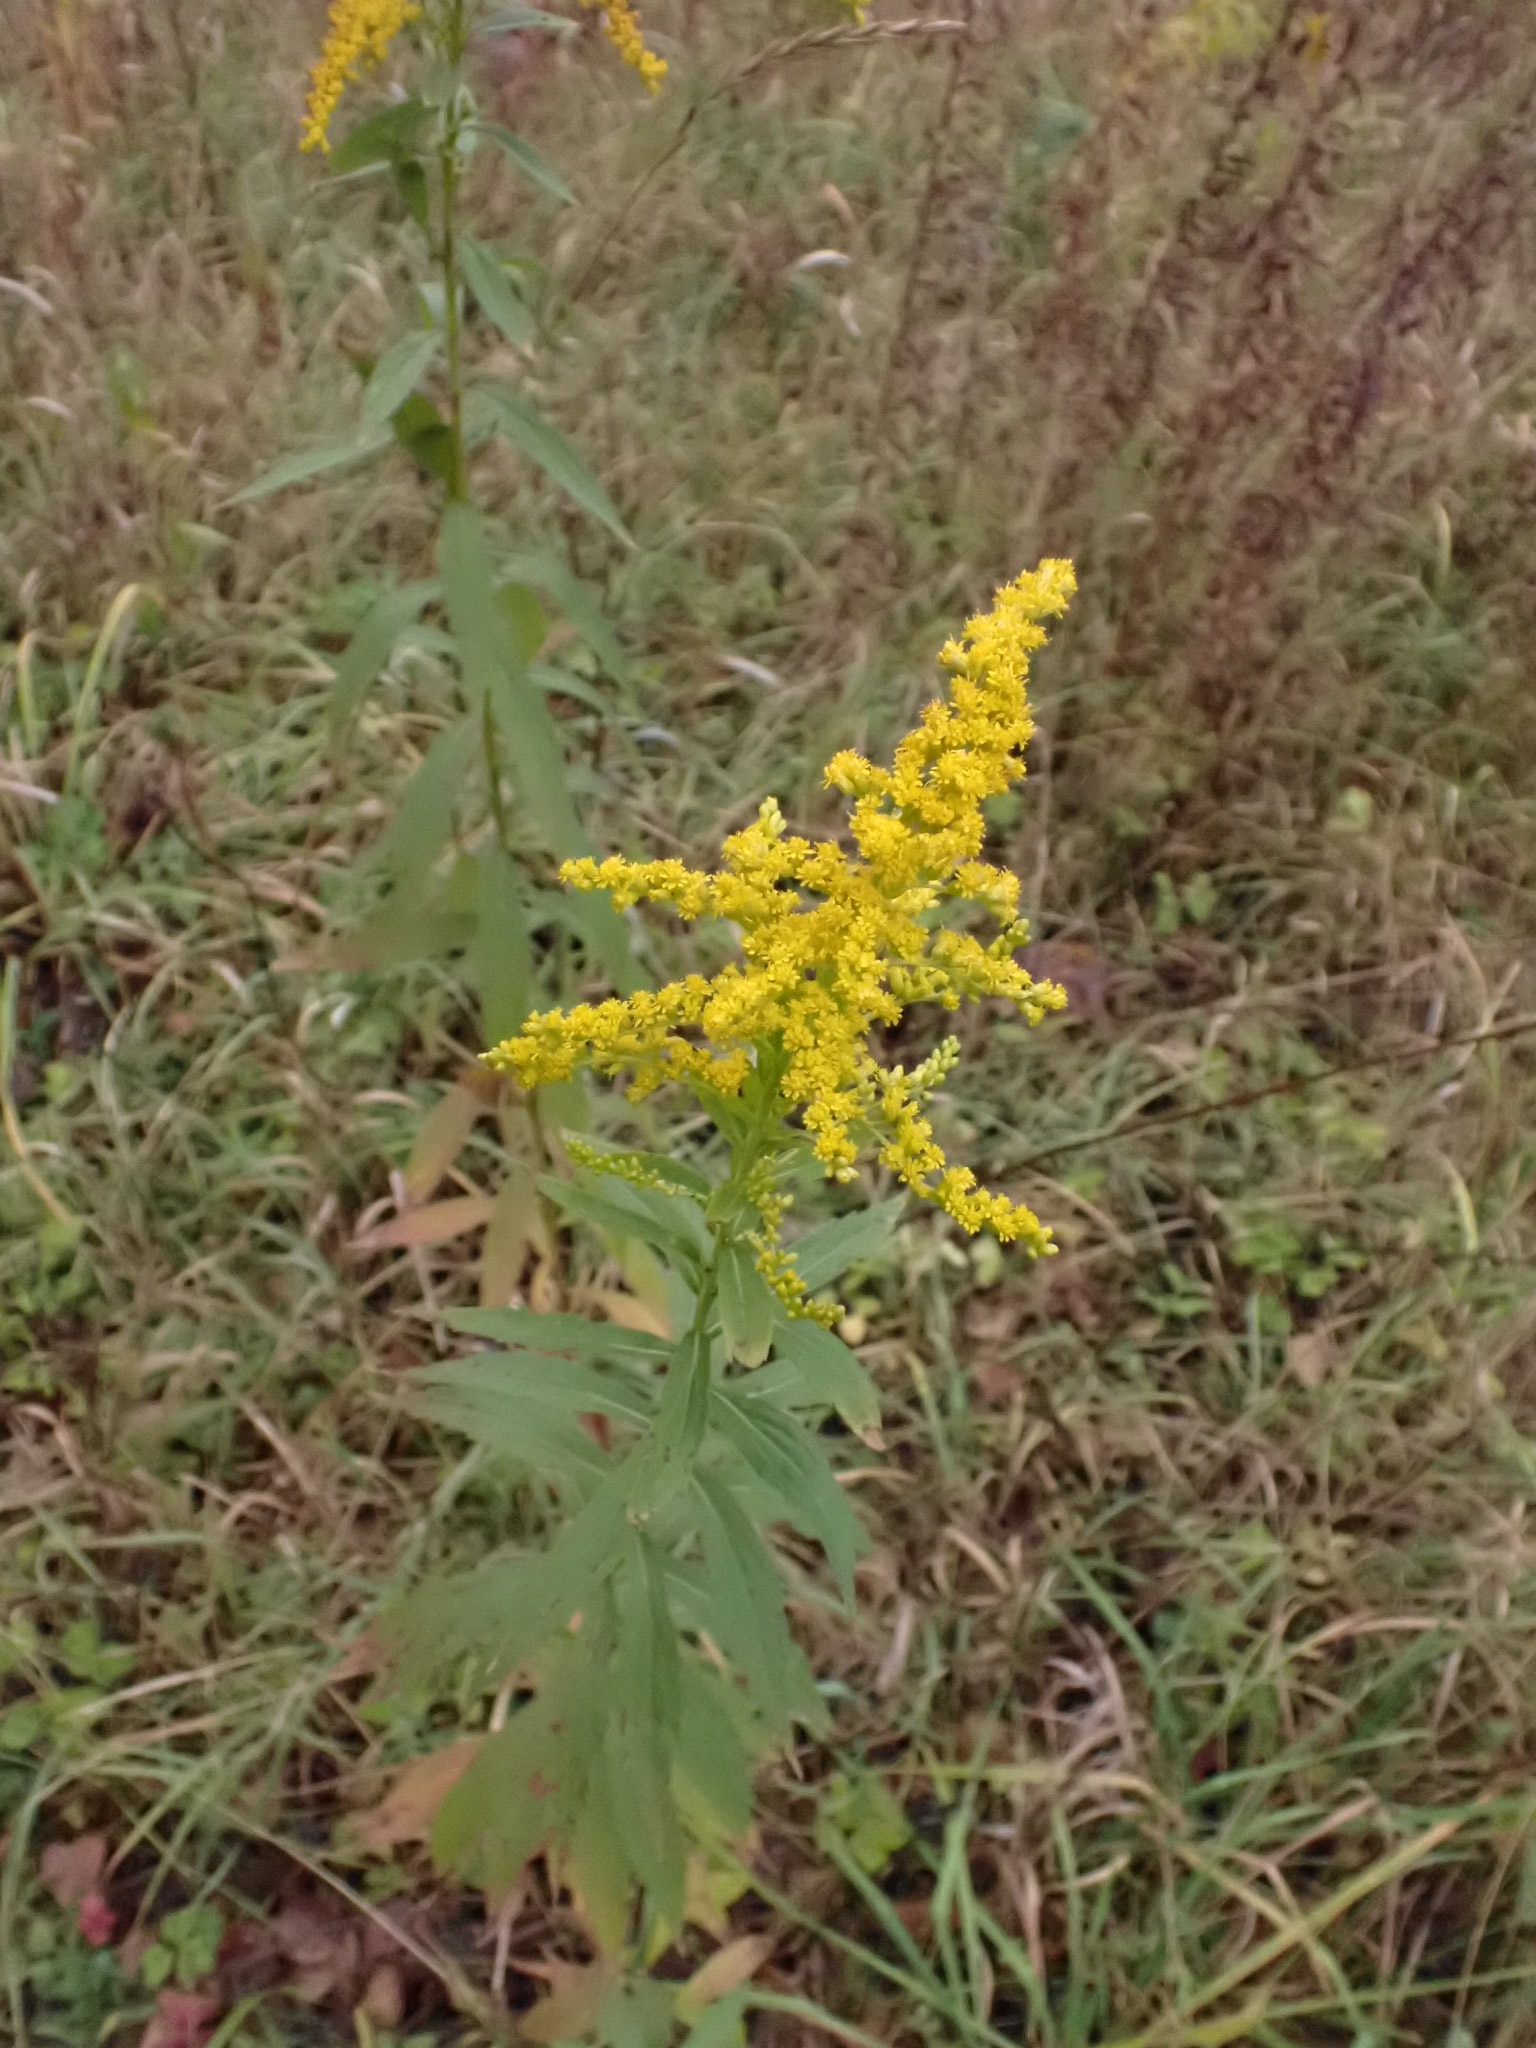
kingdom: Plantae
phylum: Tracheophyta
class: Magnoliopsida
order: Asterales
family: Asteraceae
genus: Solidago
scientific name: Solidago canadensis
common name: Canada goldenrod
